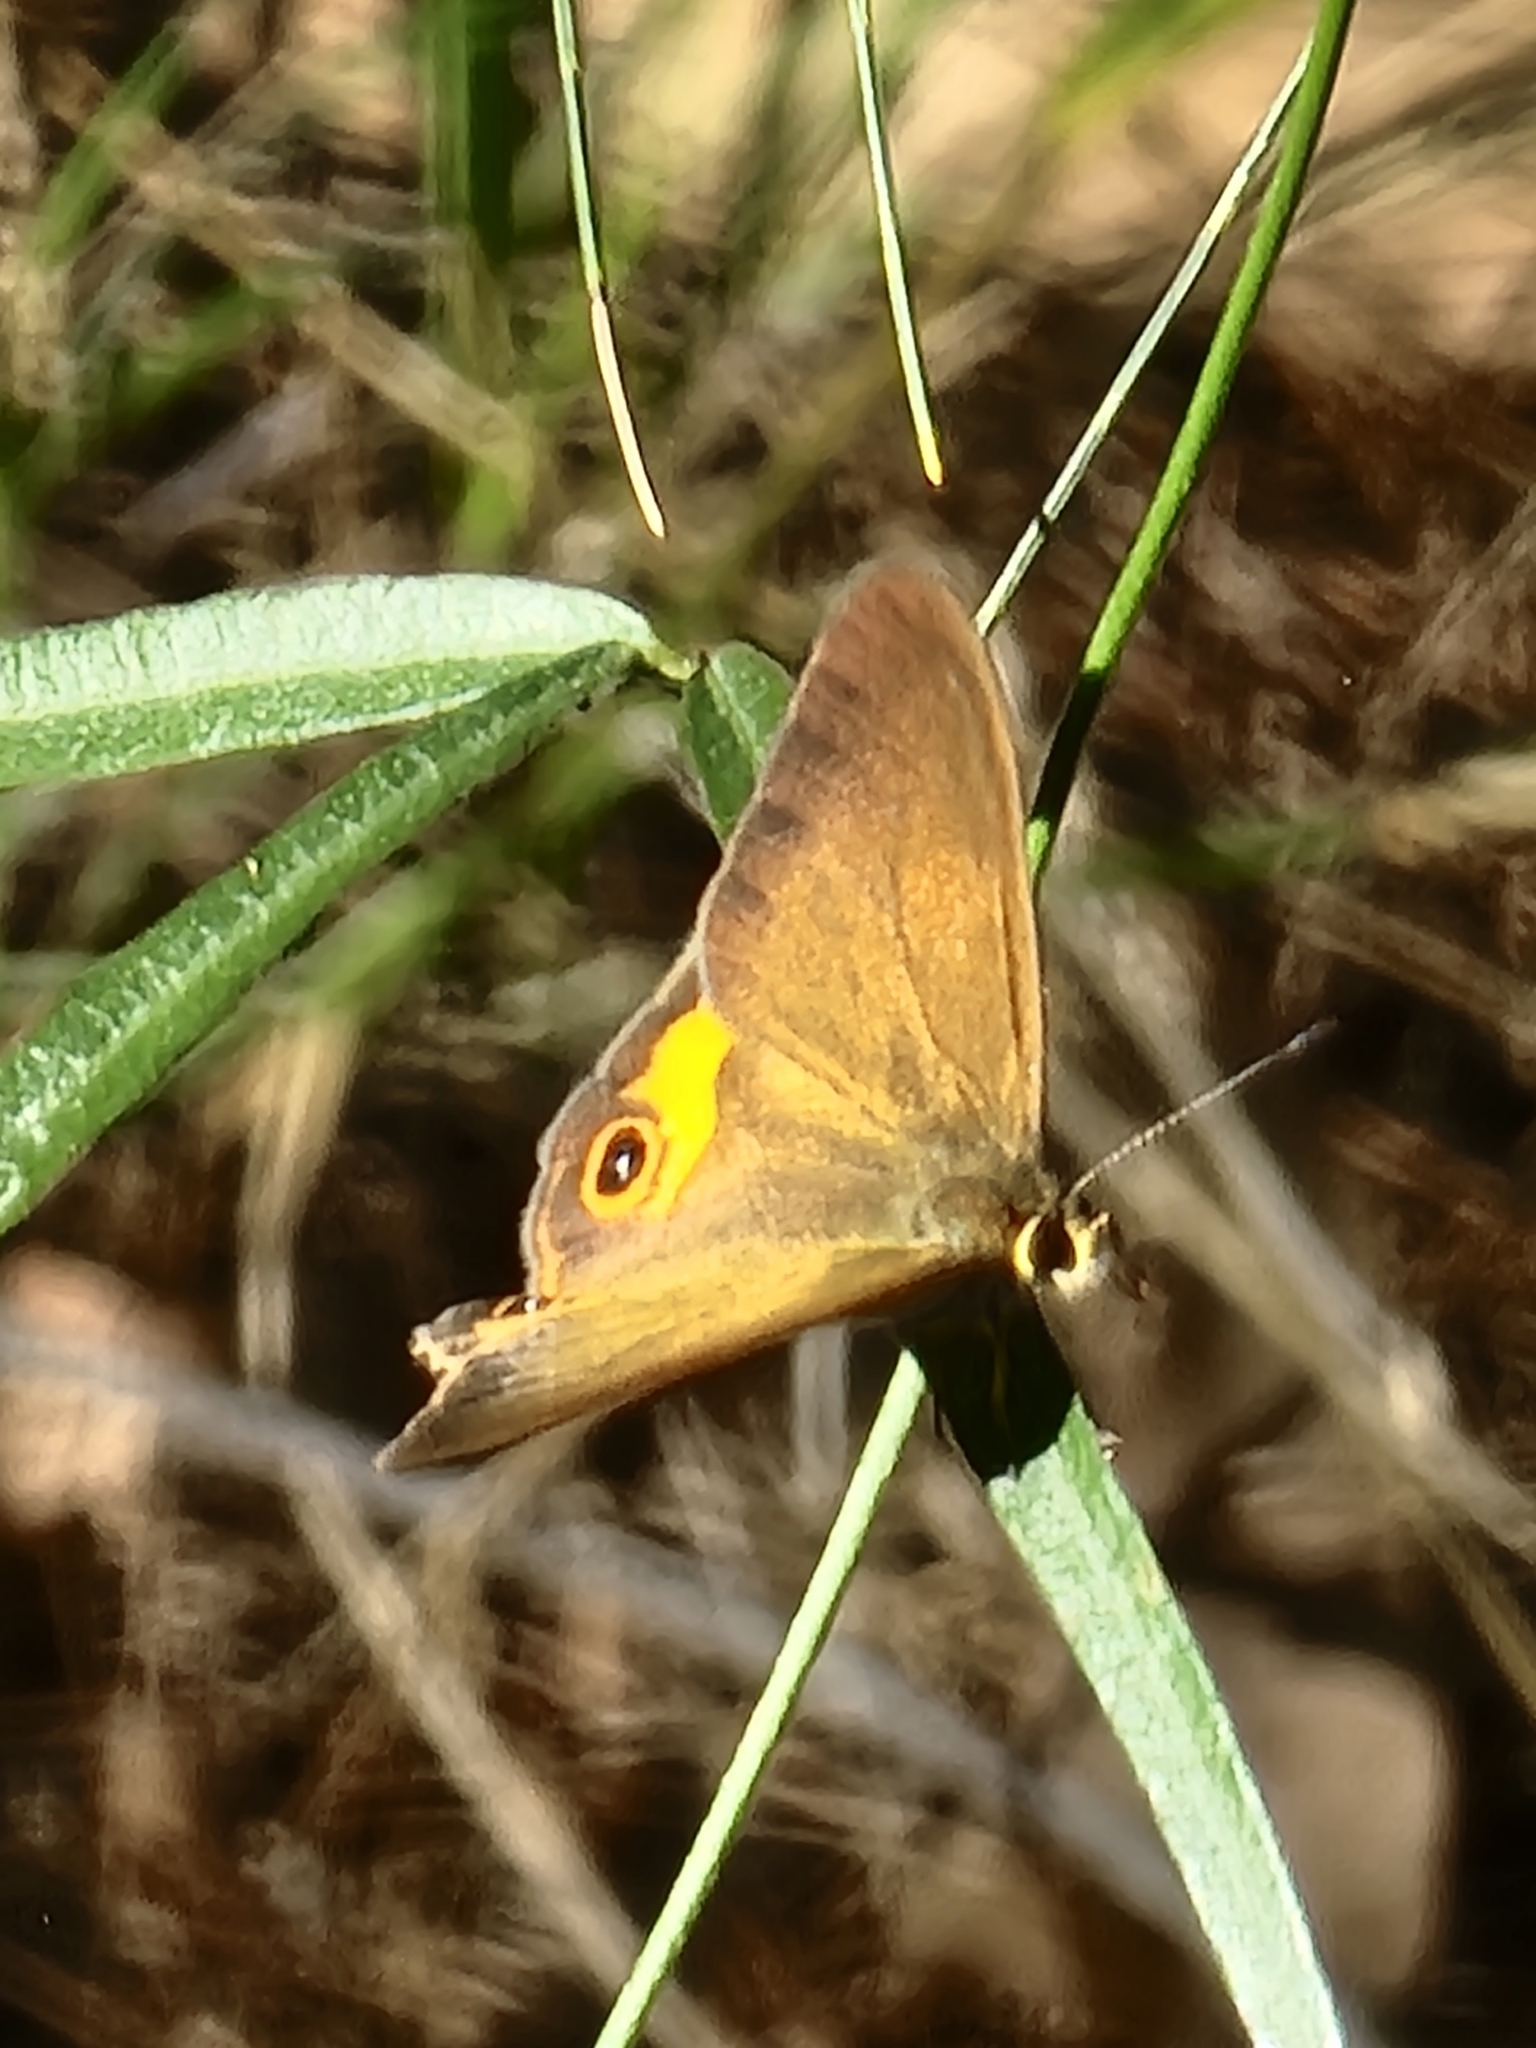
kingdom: Animalia
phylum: Arthropoda
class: Insecta
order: Lepidoptera
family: Nymphalidae
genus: Hypocysta
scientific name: Hypocysta metirius
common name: Brown ringlet
